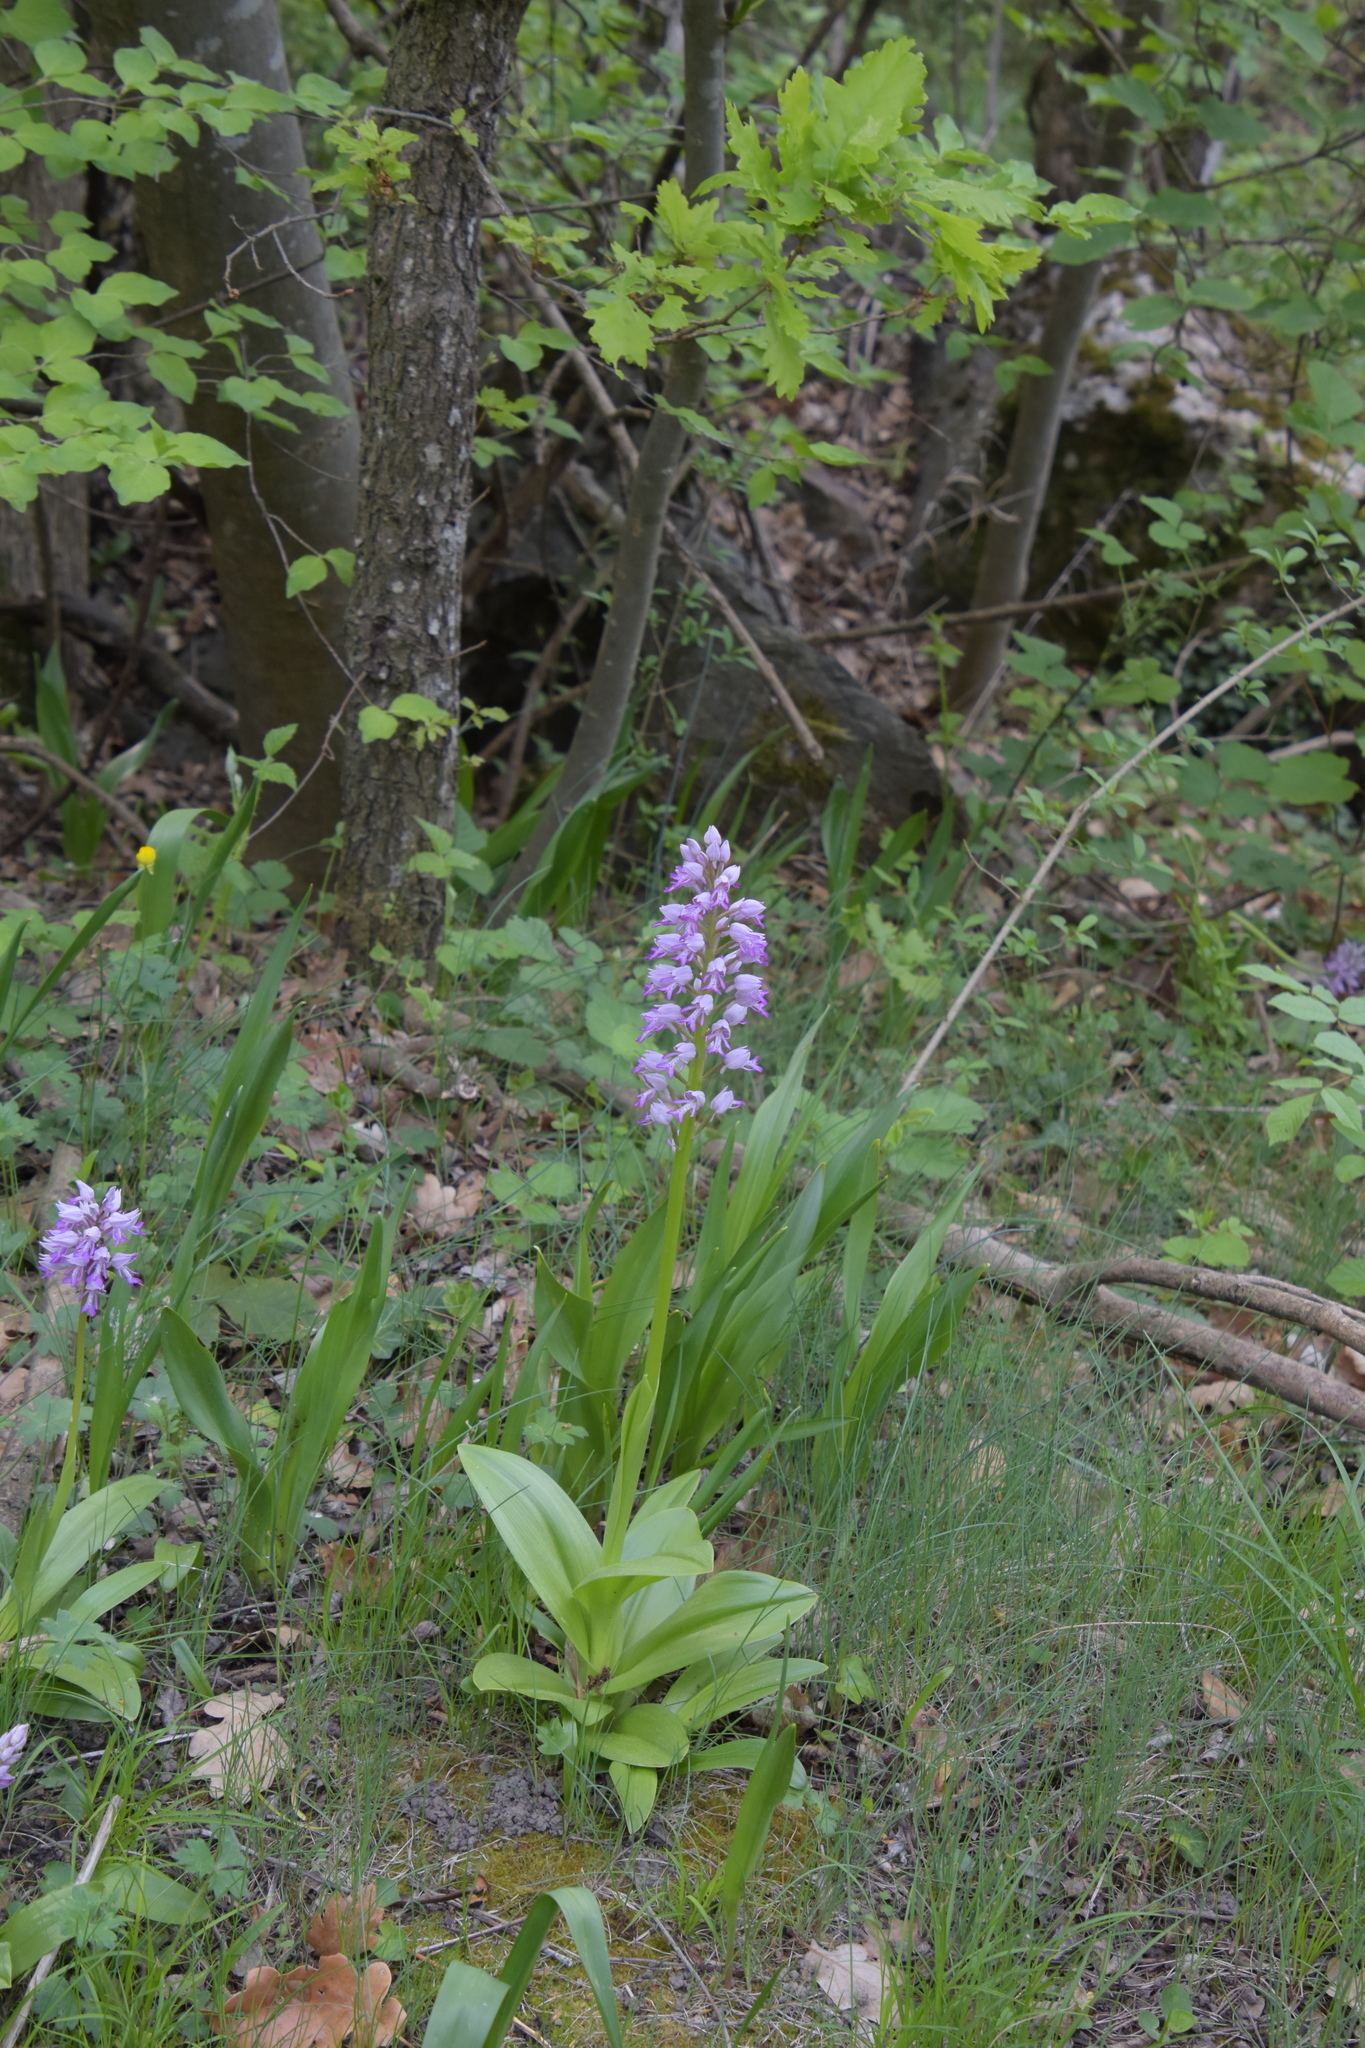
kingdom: Plantae
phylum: Tracheophyta
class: Liliopsida
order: Asparagales
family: Orchidaceae
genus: Orchis
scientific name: Orchis militaris
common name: Military orchid
